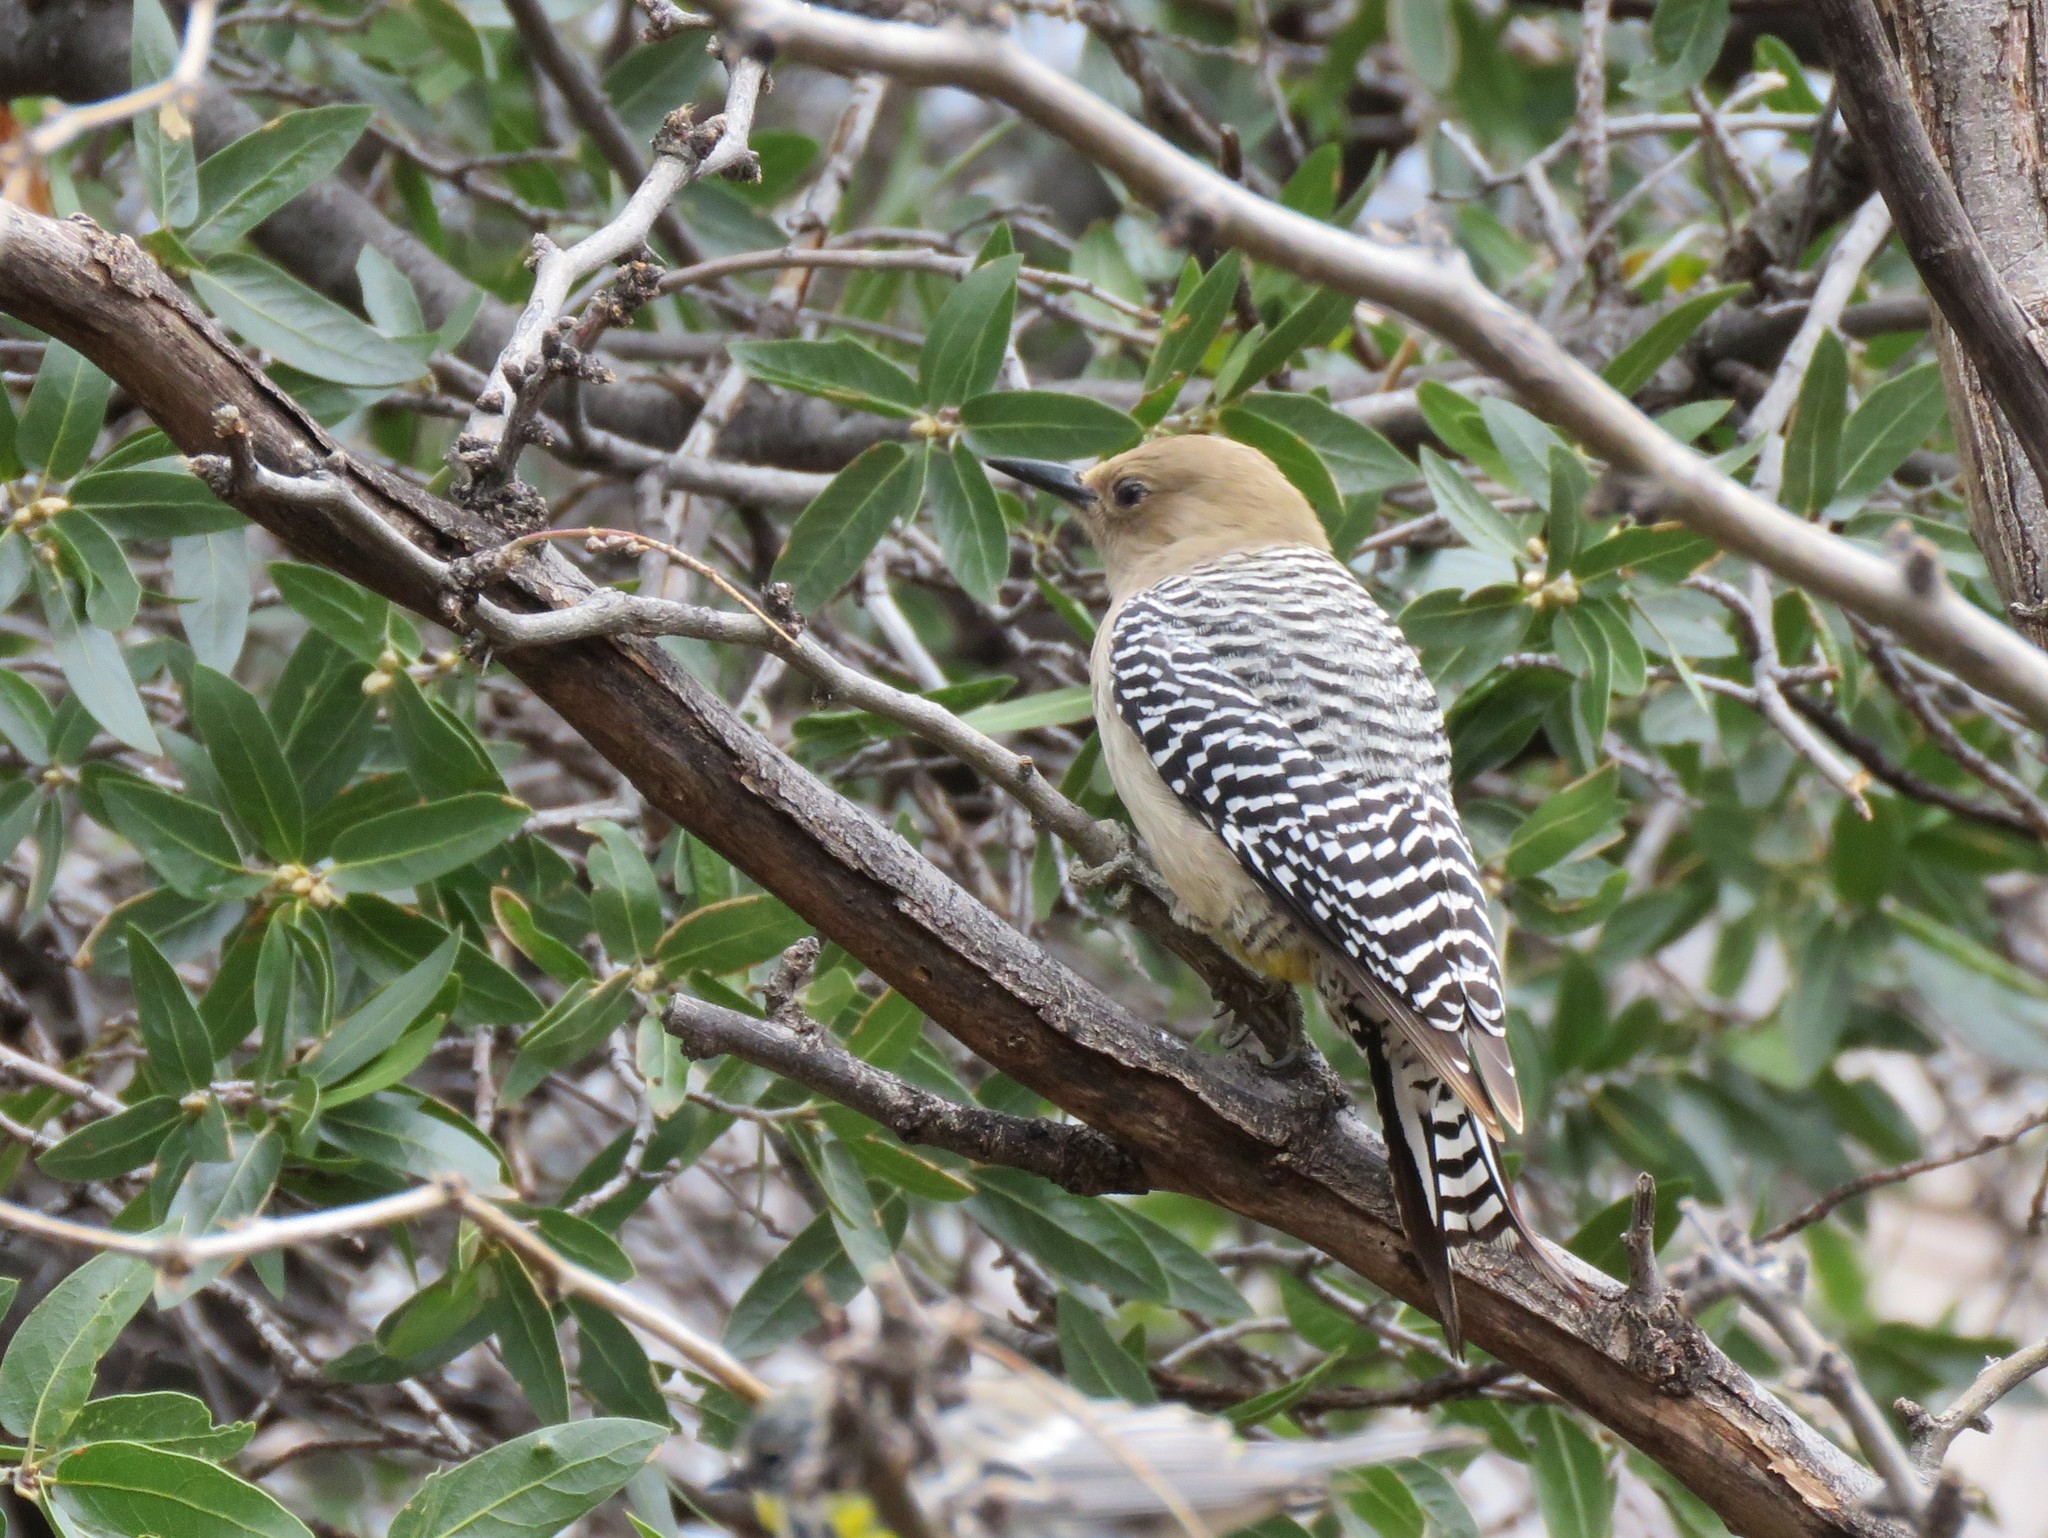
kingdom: Animalia
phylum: Chordata
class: Aves
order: Piciformes
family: Picidae
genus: Melanerpes
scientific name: Melanerpes uropygialis
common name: Gila woodpecker
